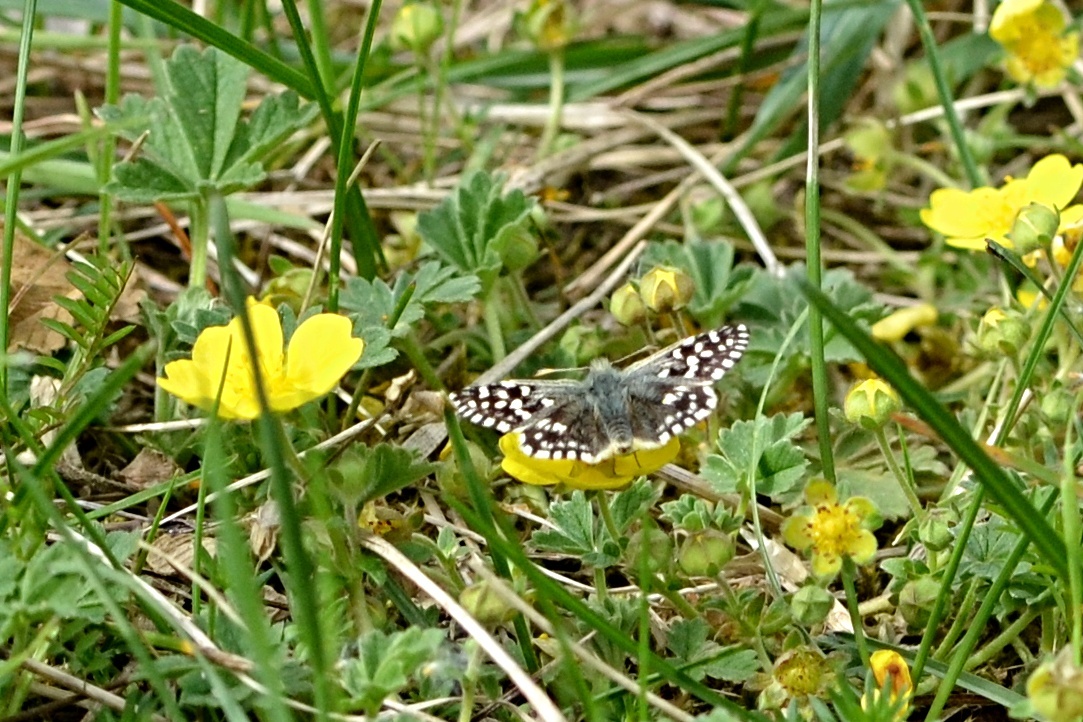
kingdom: Animalia
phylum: Arthropoda
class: Insecta
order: Lepidoptera
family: Hesperiidae
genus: Pyrgus
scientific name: Pyrgus malvae
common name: Grizzled skipper
